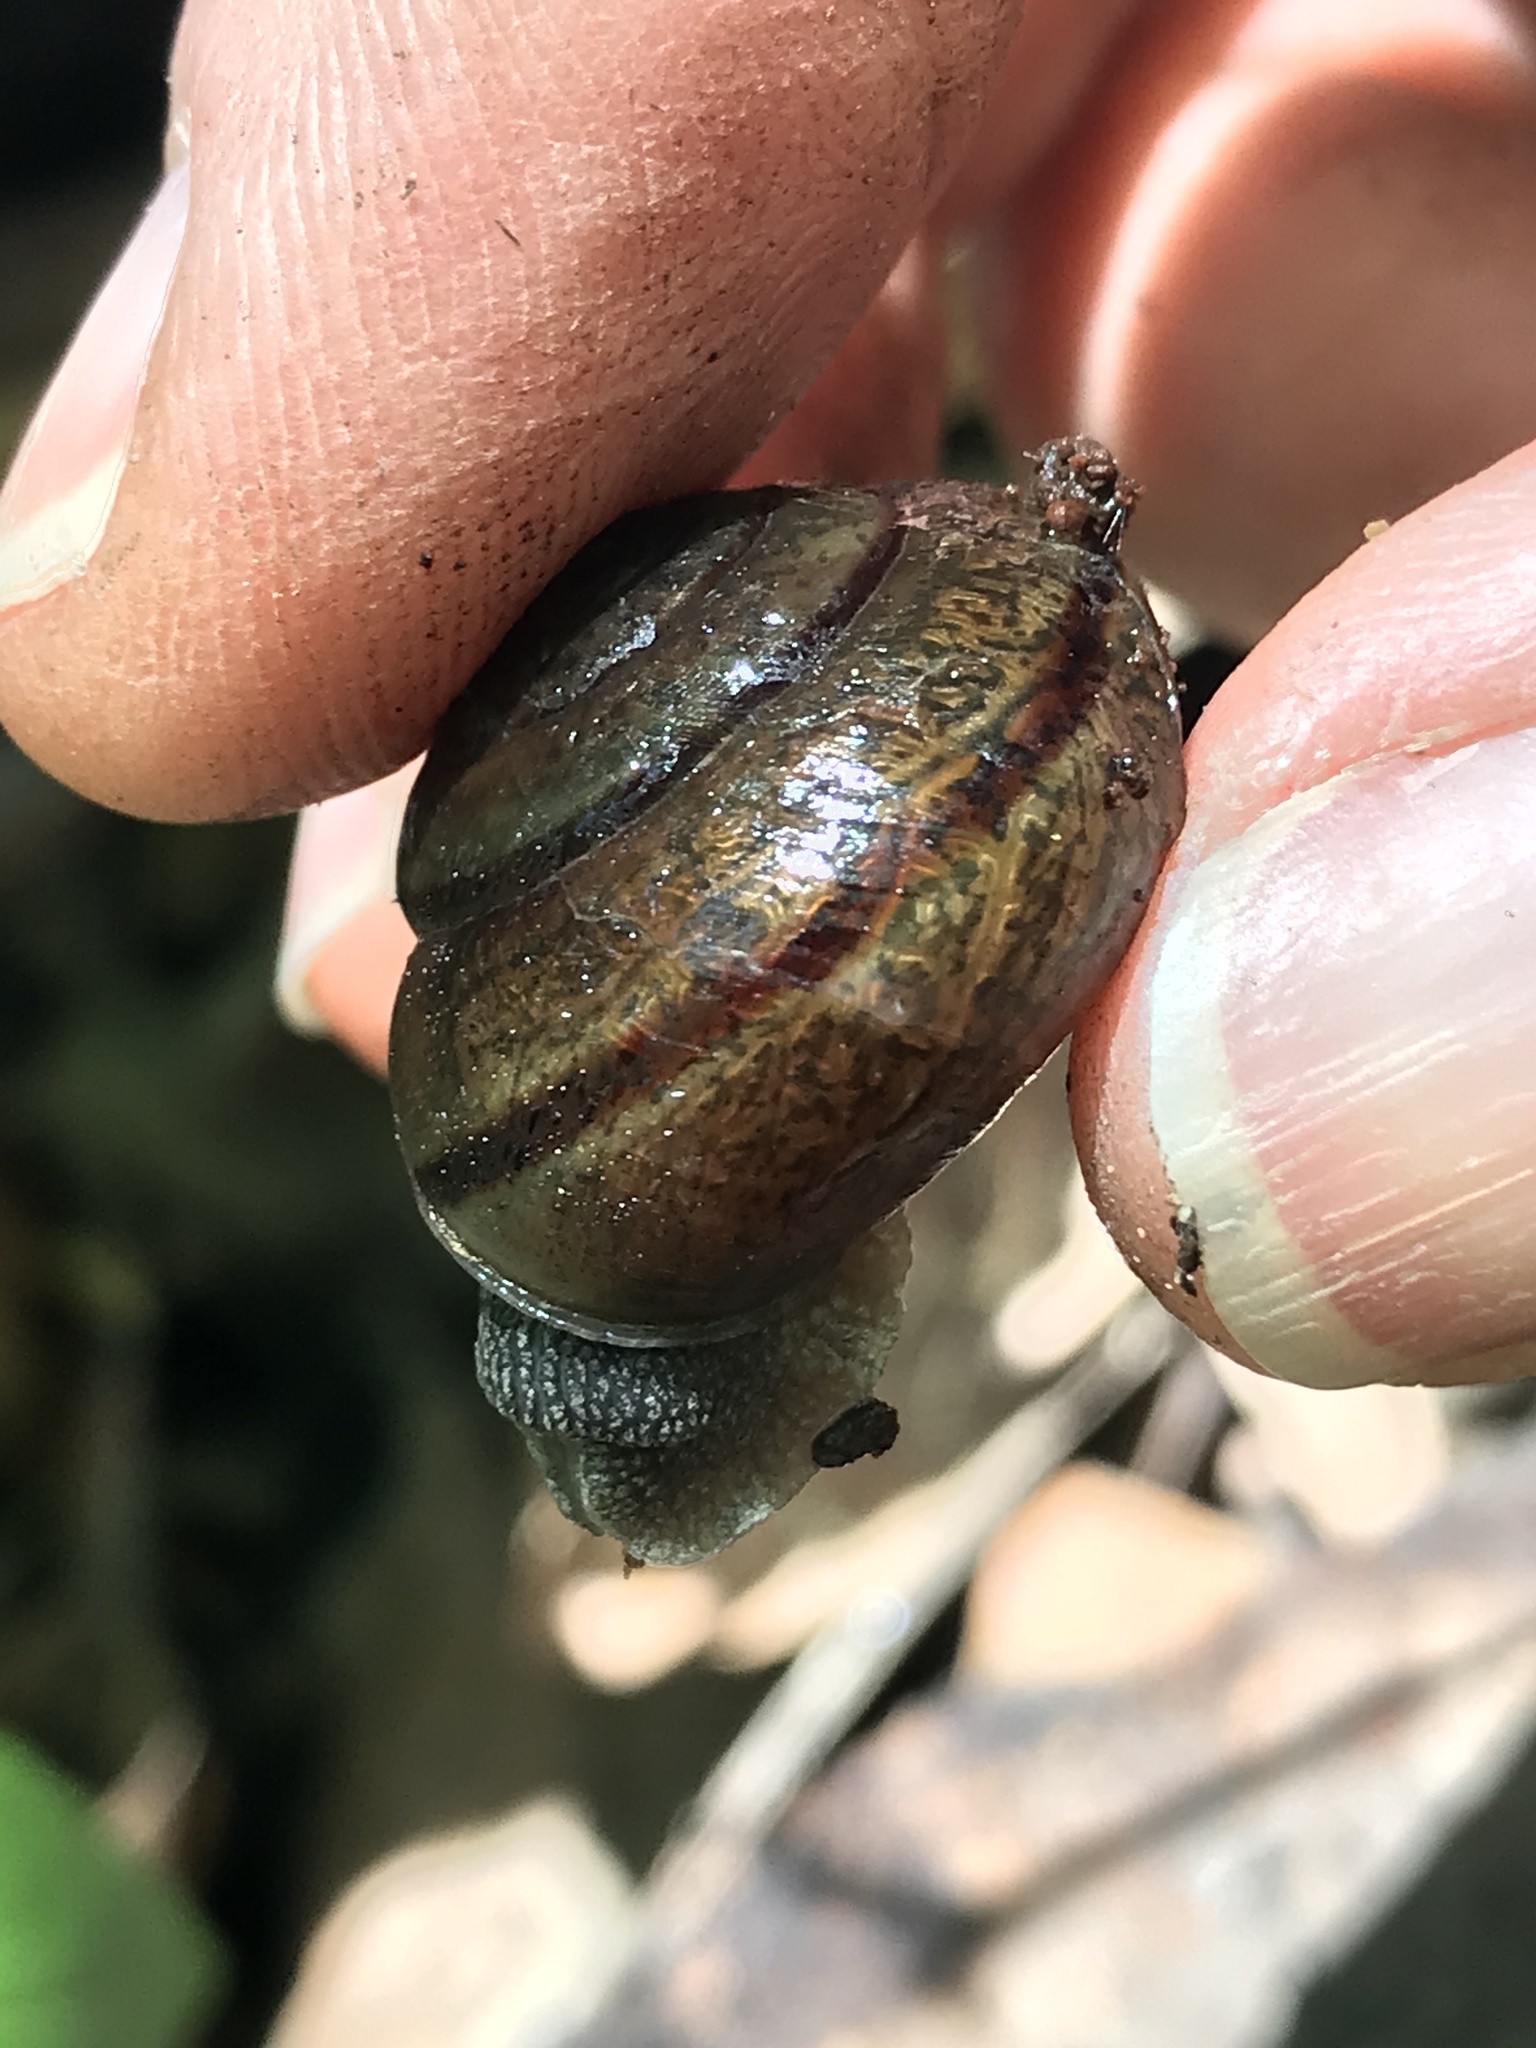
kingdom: Animalia
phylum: Mollusca
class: Gastropoda
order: Stylommatophora
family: Xanthonychidae
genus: Helminthoglypta
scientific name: Helminthoglypta tudiculata
